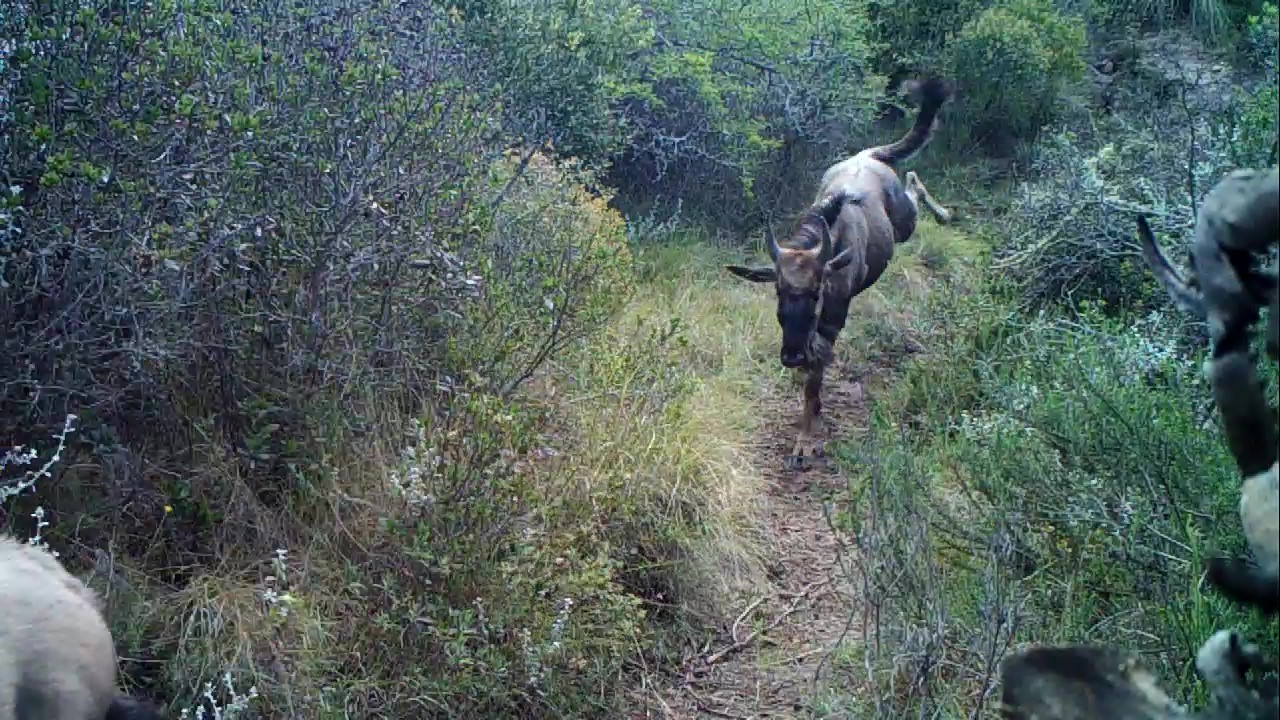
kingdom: Animalia
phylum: Chordata
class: Mammalia
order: Artiodactyla
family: Bovidae
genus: Connochaetes
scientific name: Connochaetes taurinus
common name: Blue wildebeest
